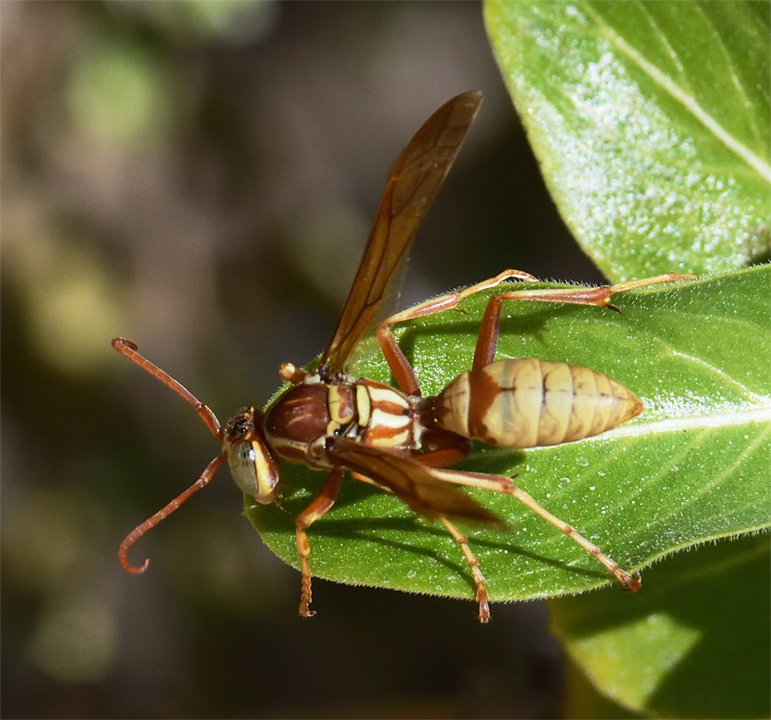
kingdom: Animalia
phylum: Arthropoda
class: Insecta
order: Hymenoptera
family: Eumenidae
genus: Polistes
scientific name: Polistes aurifer
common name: Paper wasp
